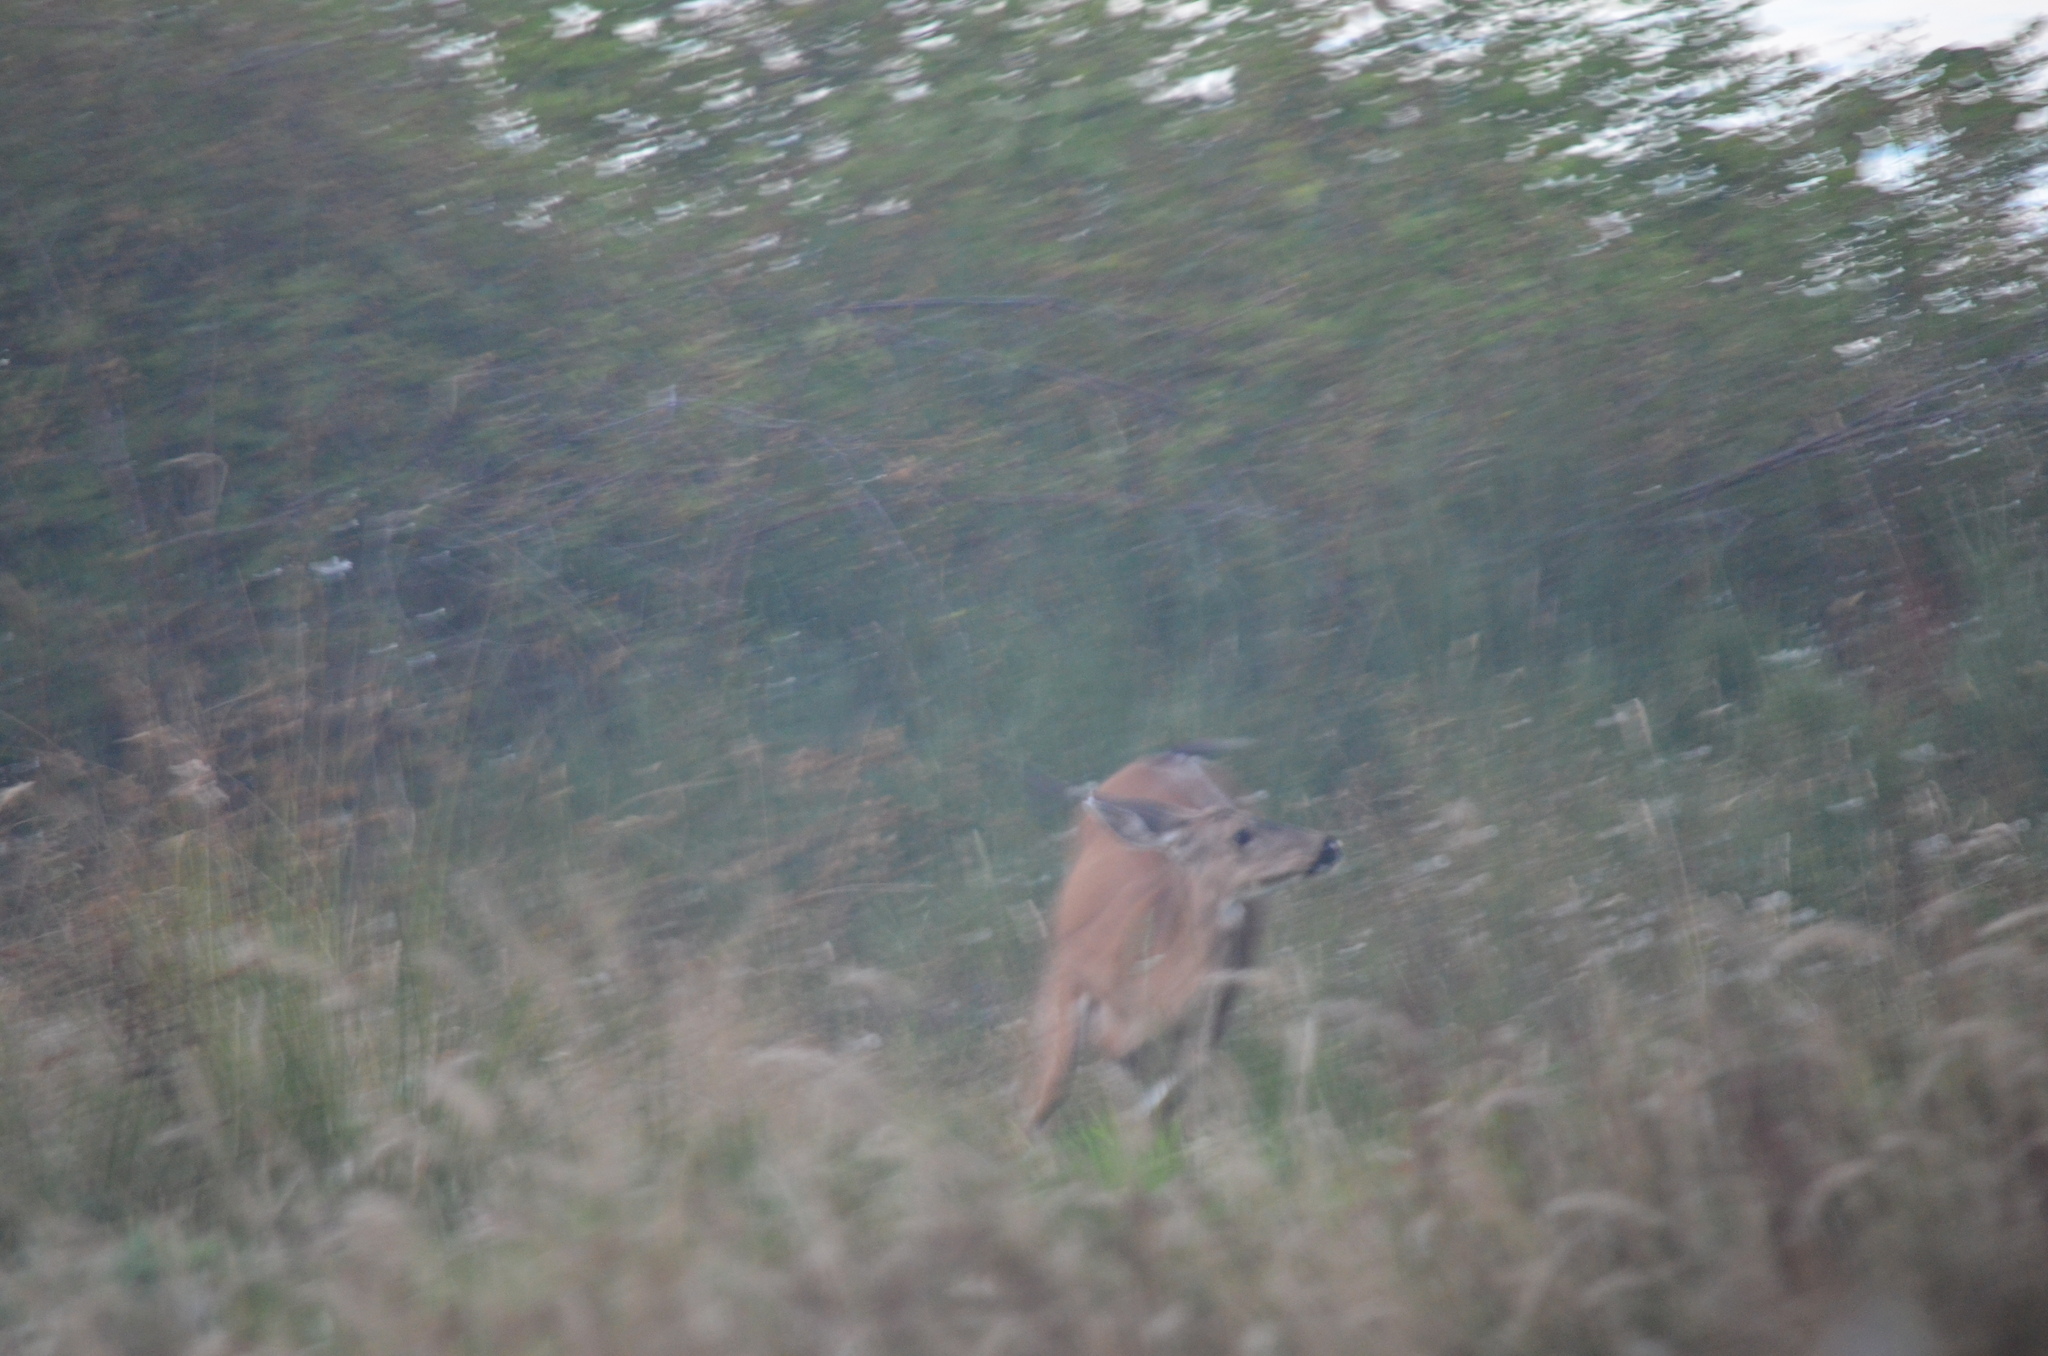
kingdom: Animalia
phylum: Chordata
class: Mammalia
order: Artiodactyla
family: Cervidae
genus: Odocoileus
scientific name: Odocoileus hemionus
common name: Mule deer
